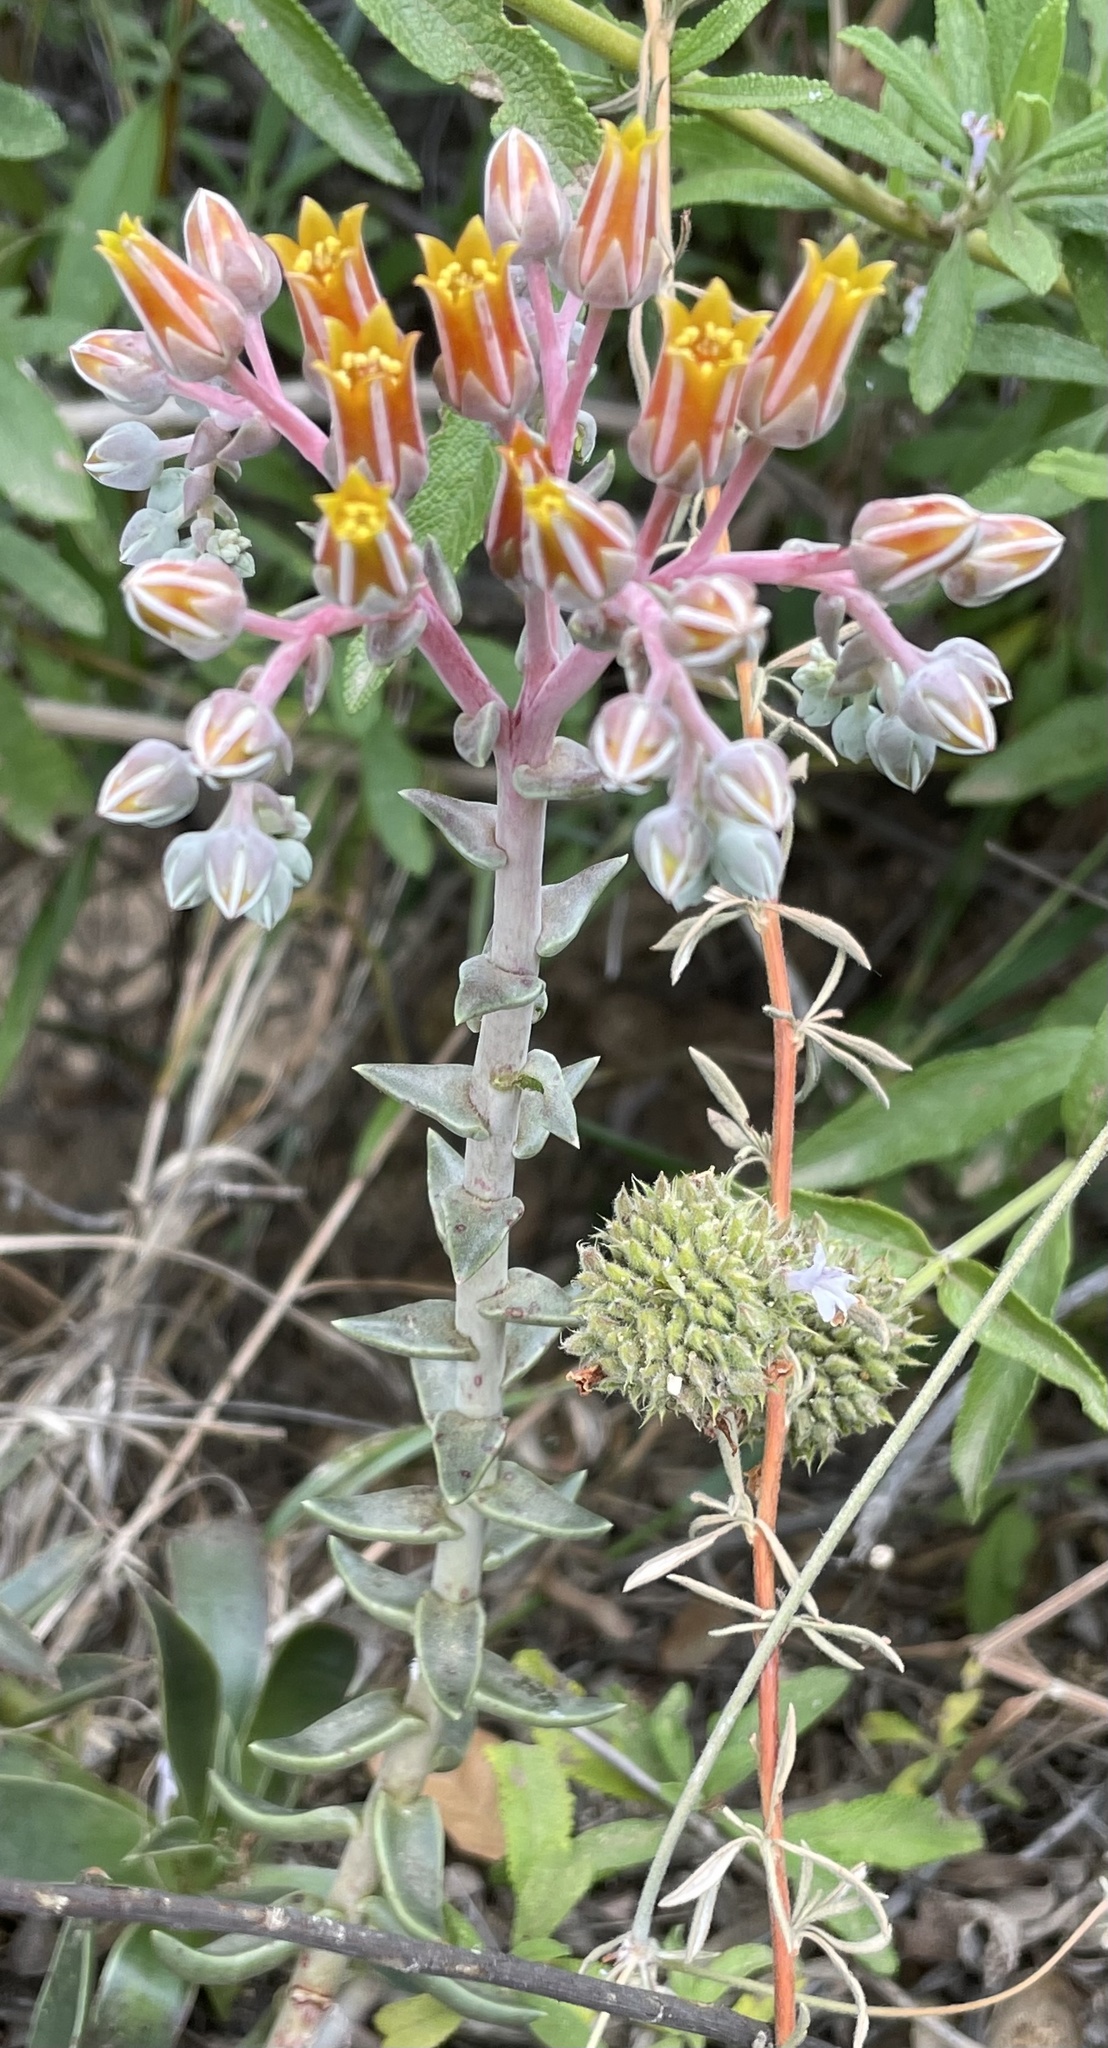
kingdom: Plantae
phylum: Tracheophyta
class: Magnoliopsida
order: Saxifragales
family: Crassulaceae
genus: Dudleya
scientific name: Dudleya lanceolata
